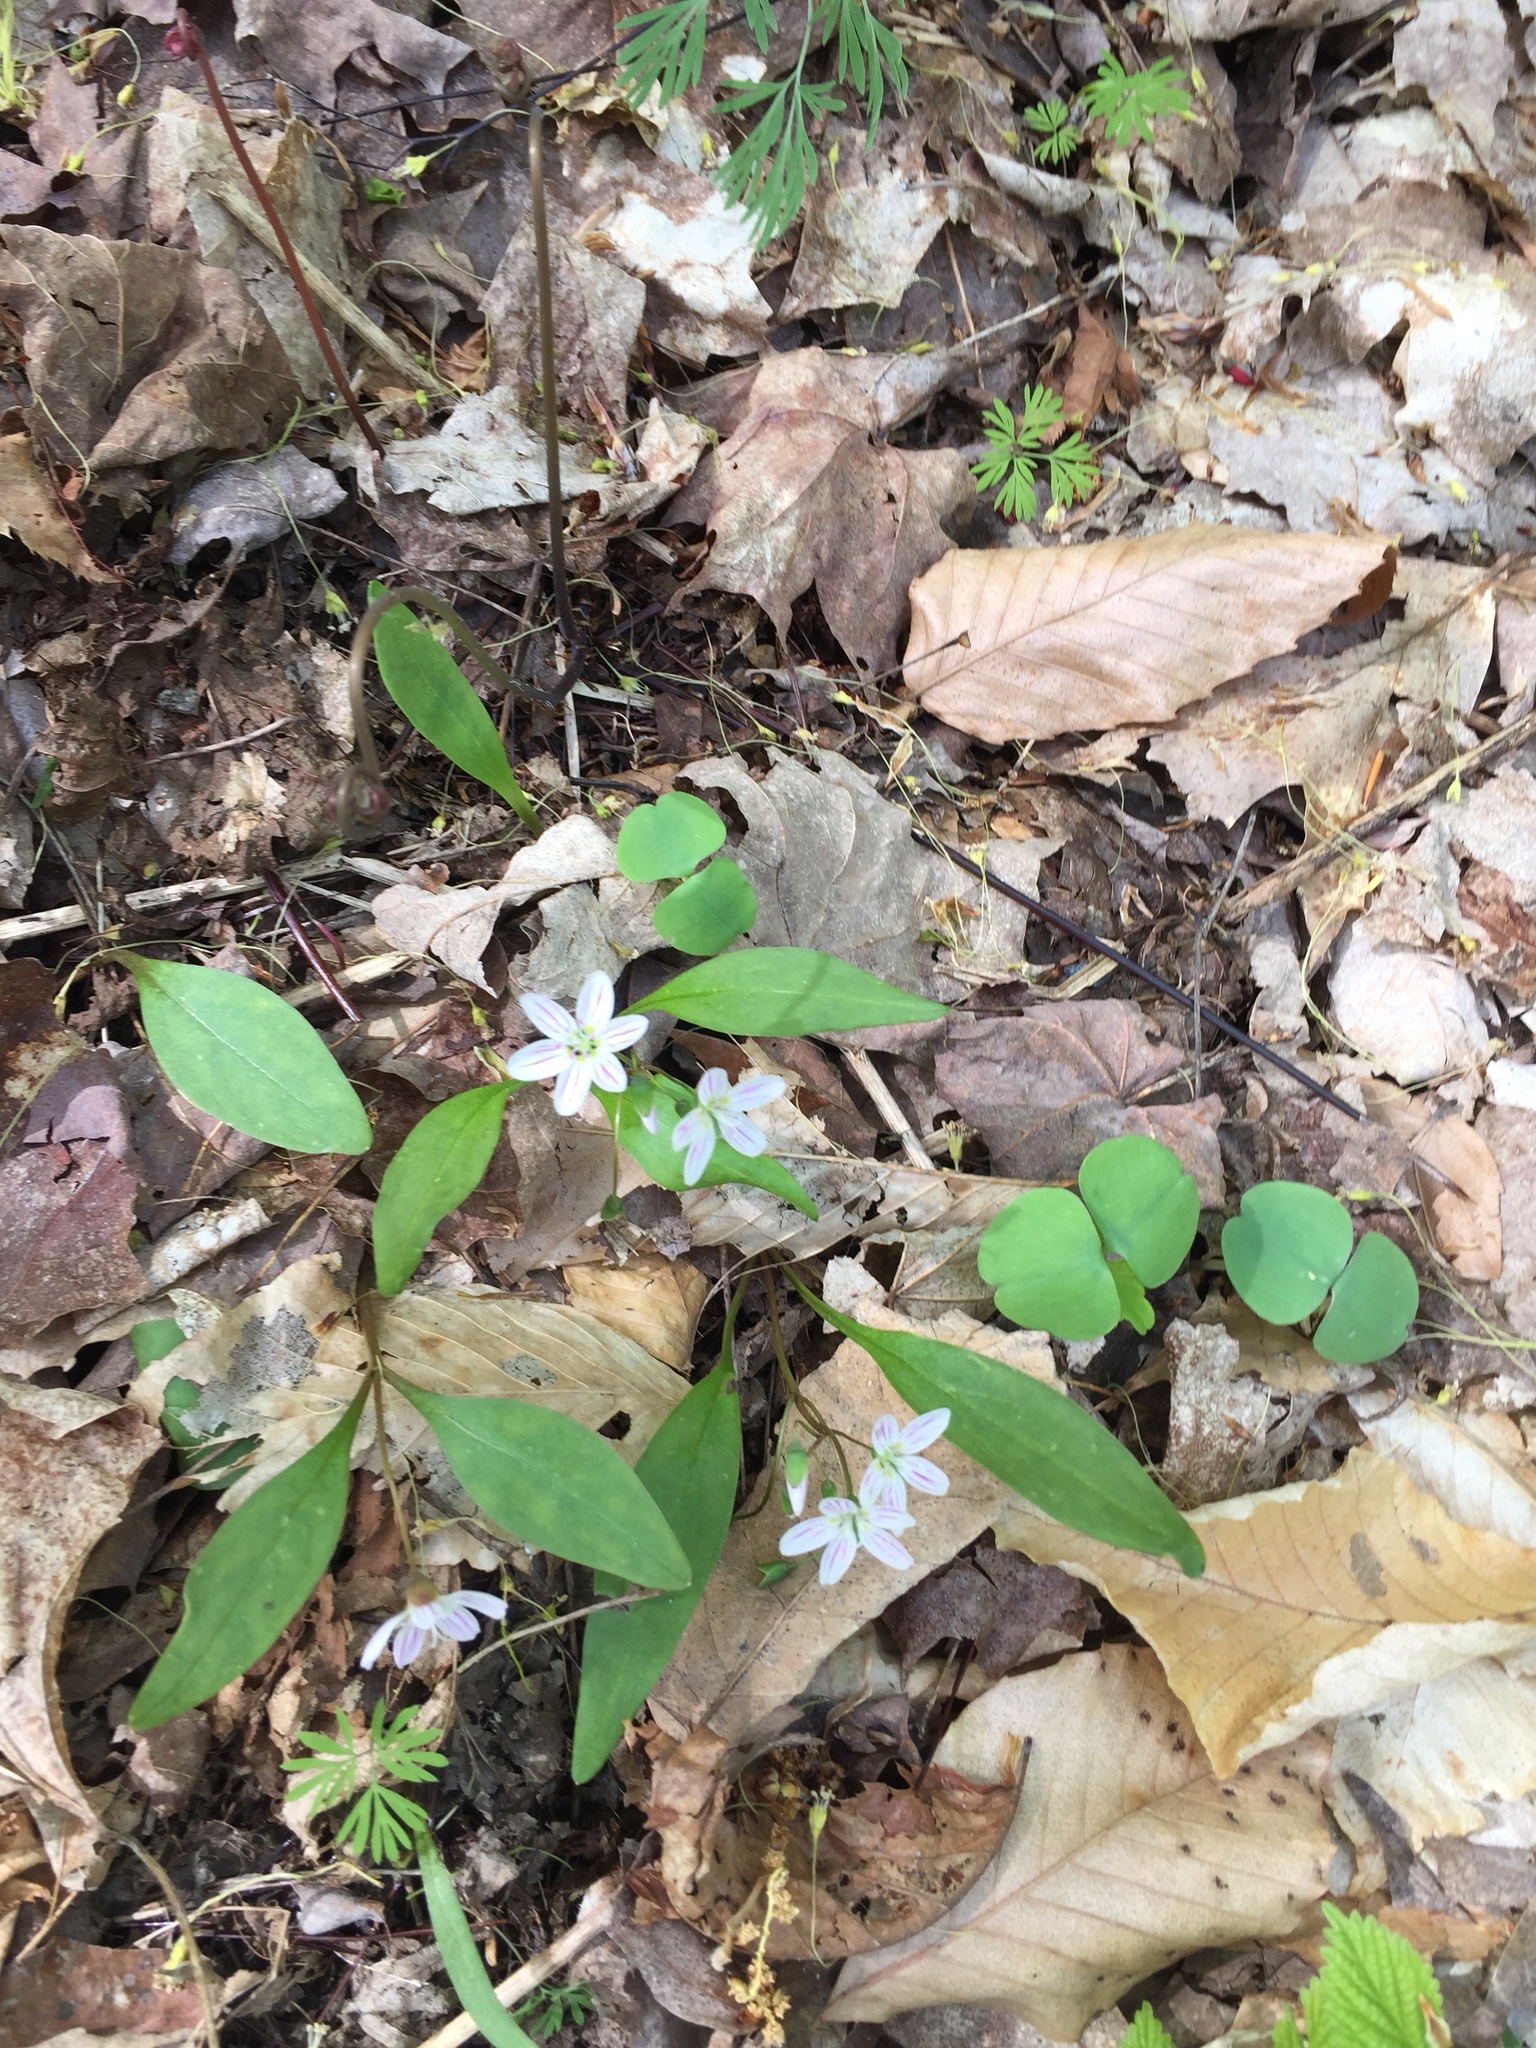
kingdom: Plantae
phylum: Tracheophyta
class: Magnoliopsida
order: Caryophyllales
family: Montiaceae
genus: Claytonia
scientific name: Claytonia caroliniana
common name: Carolina spring beauty
